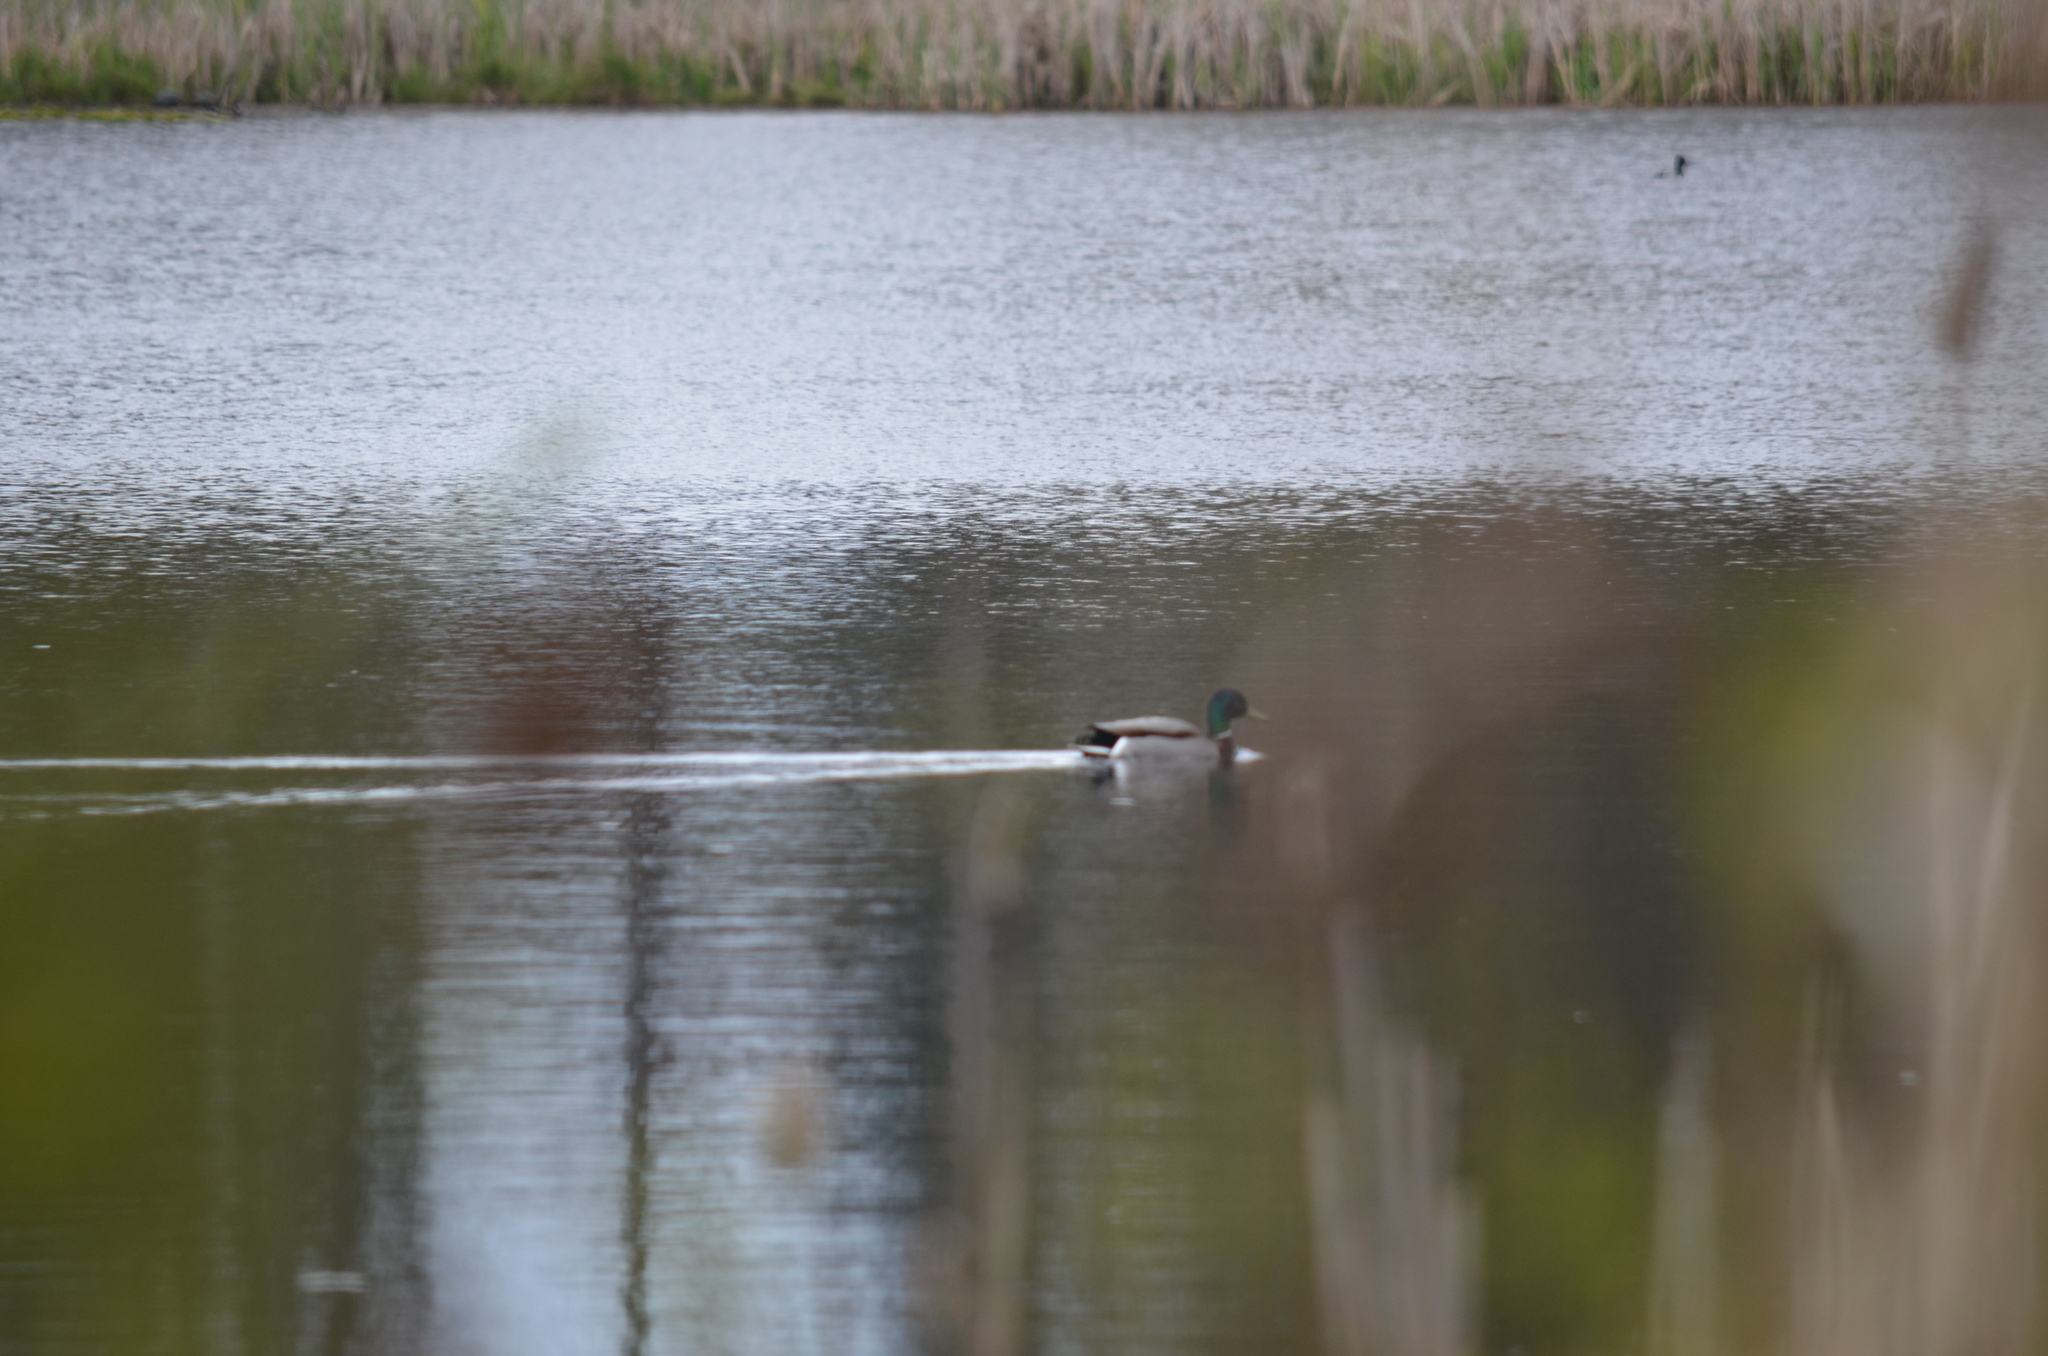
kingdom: Animalia
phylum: Chordata
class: Aves
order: Anseriformes
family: Anatidae
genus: Anas
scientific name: Anas platyrhynchos
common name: Mallard
